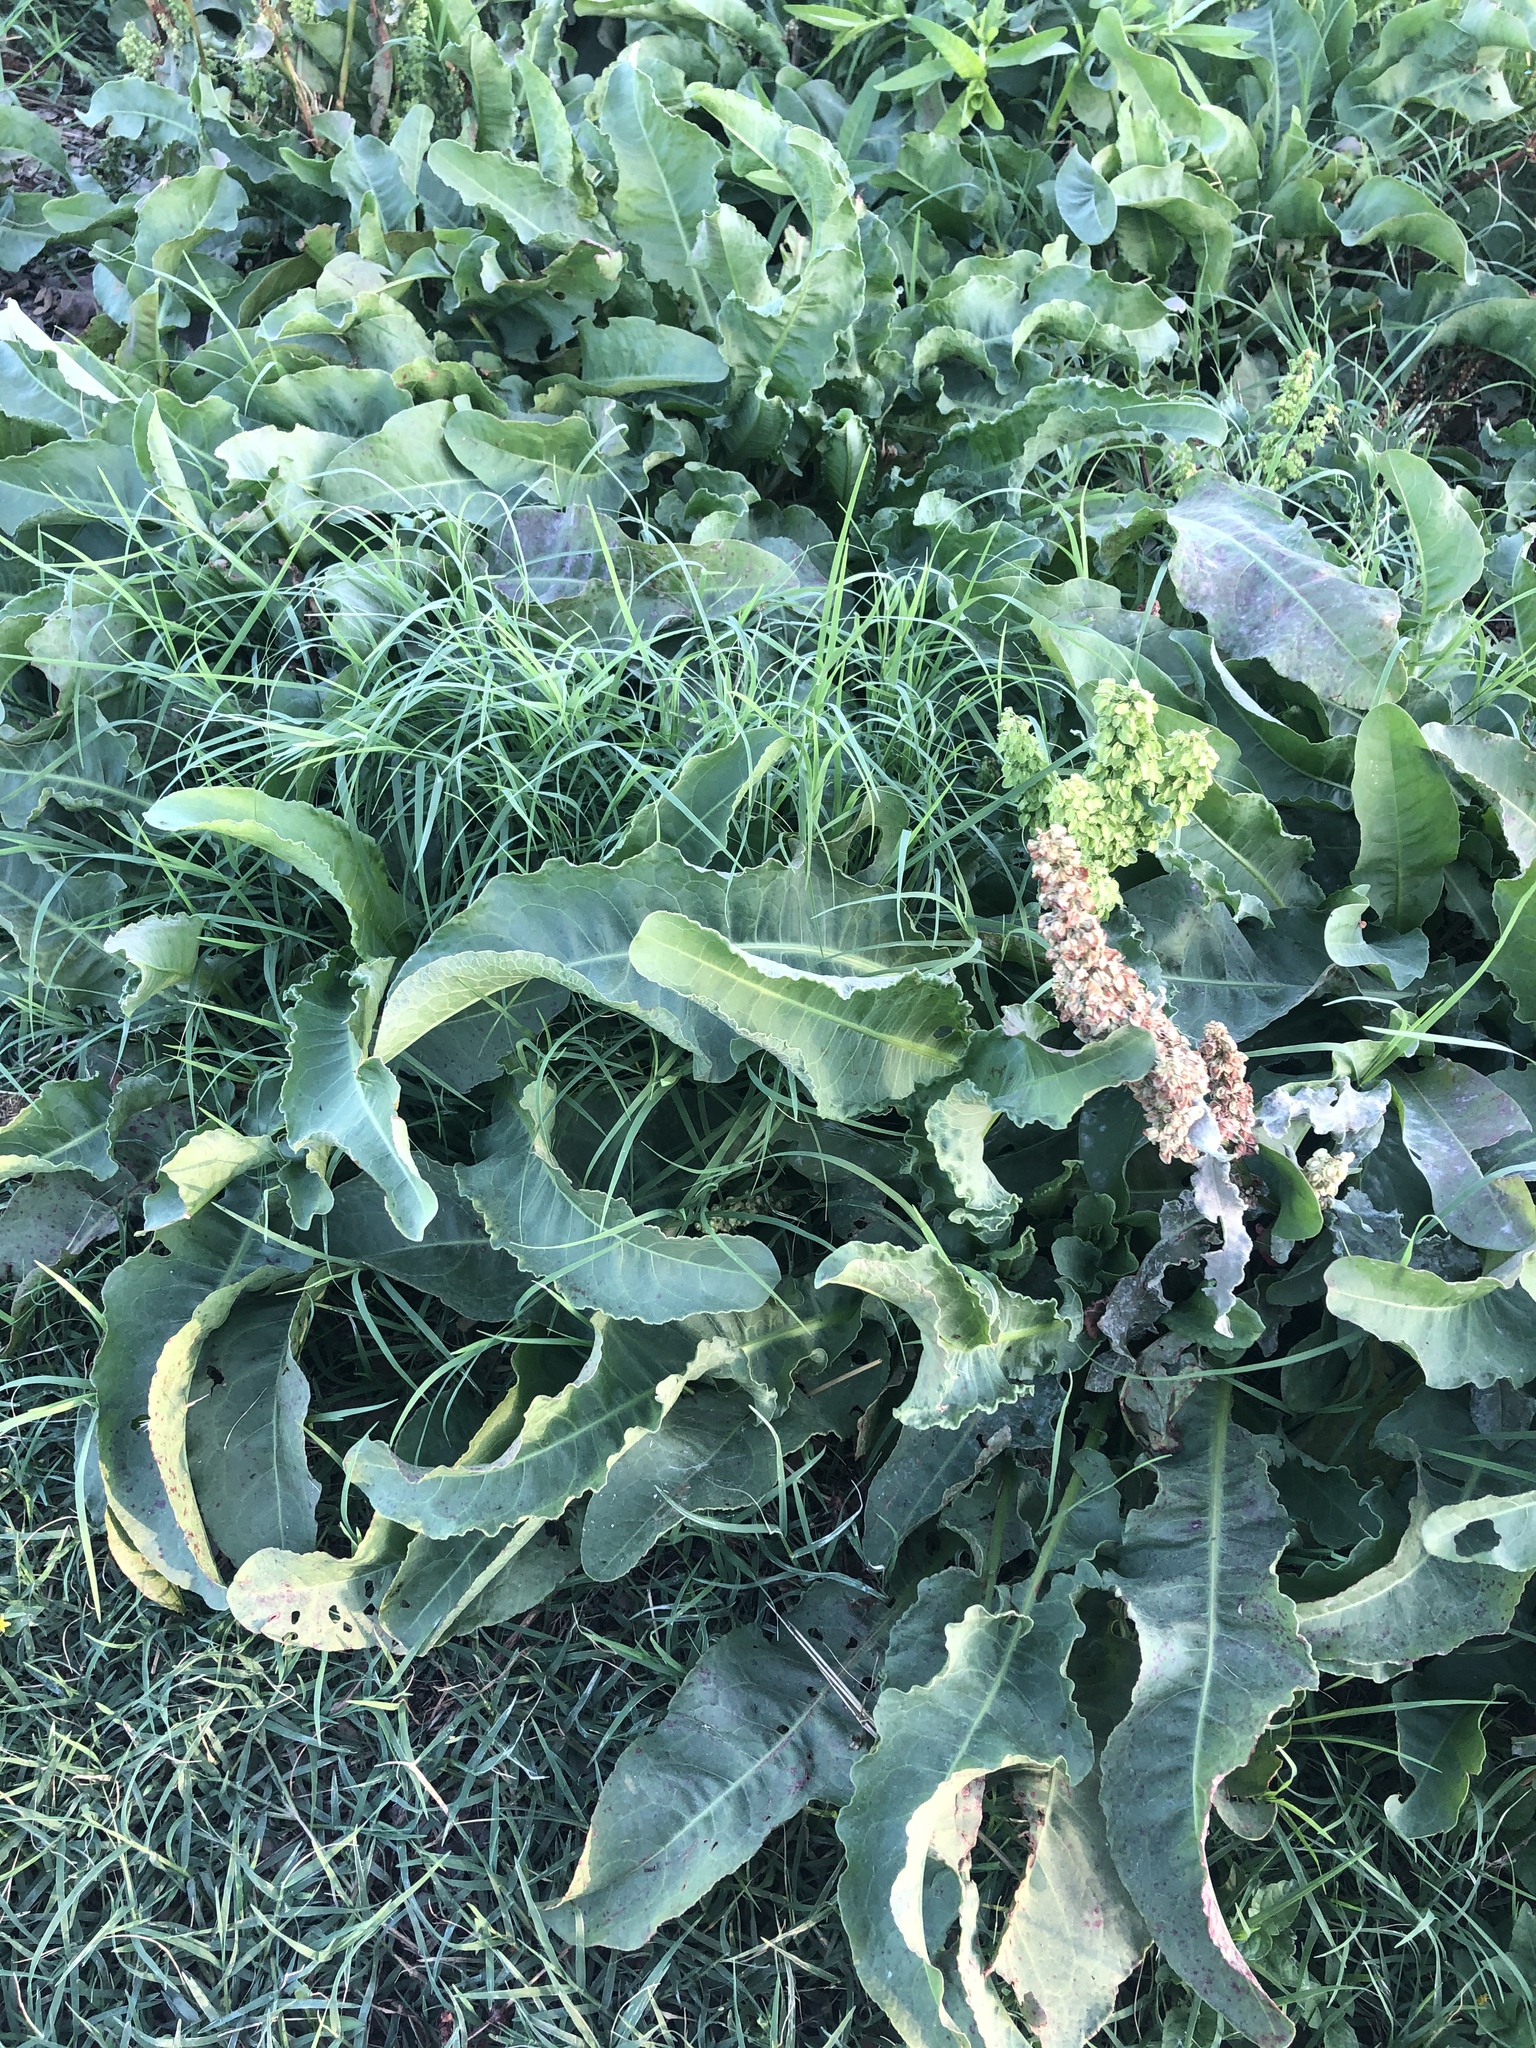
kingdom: Plantae
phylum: Tracheophyta
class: Magnoliopsida
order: Caryophyllales
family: Polygonaceae
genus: Rumex
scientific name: Rumex crispus
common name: Curled dock
